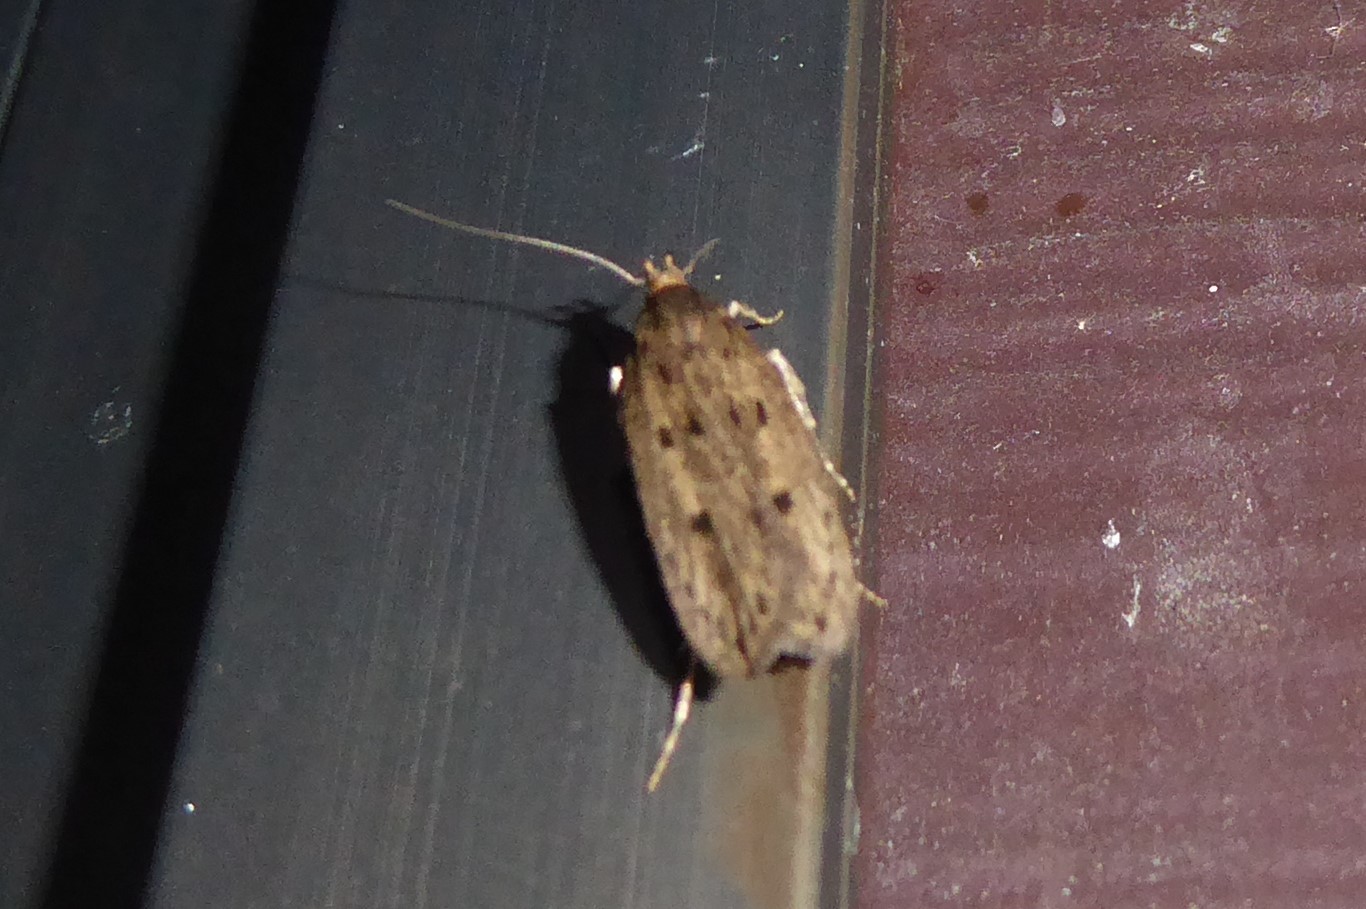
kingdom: Animalia
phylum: Arthropoda
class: Insecta
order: Lepidoptera
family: Oecophoridae
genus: Hofmannophila
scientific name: Hofmannophila pseudospretella
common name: Brown house moth
